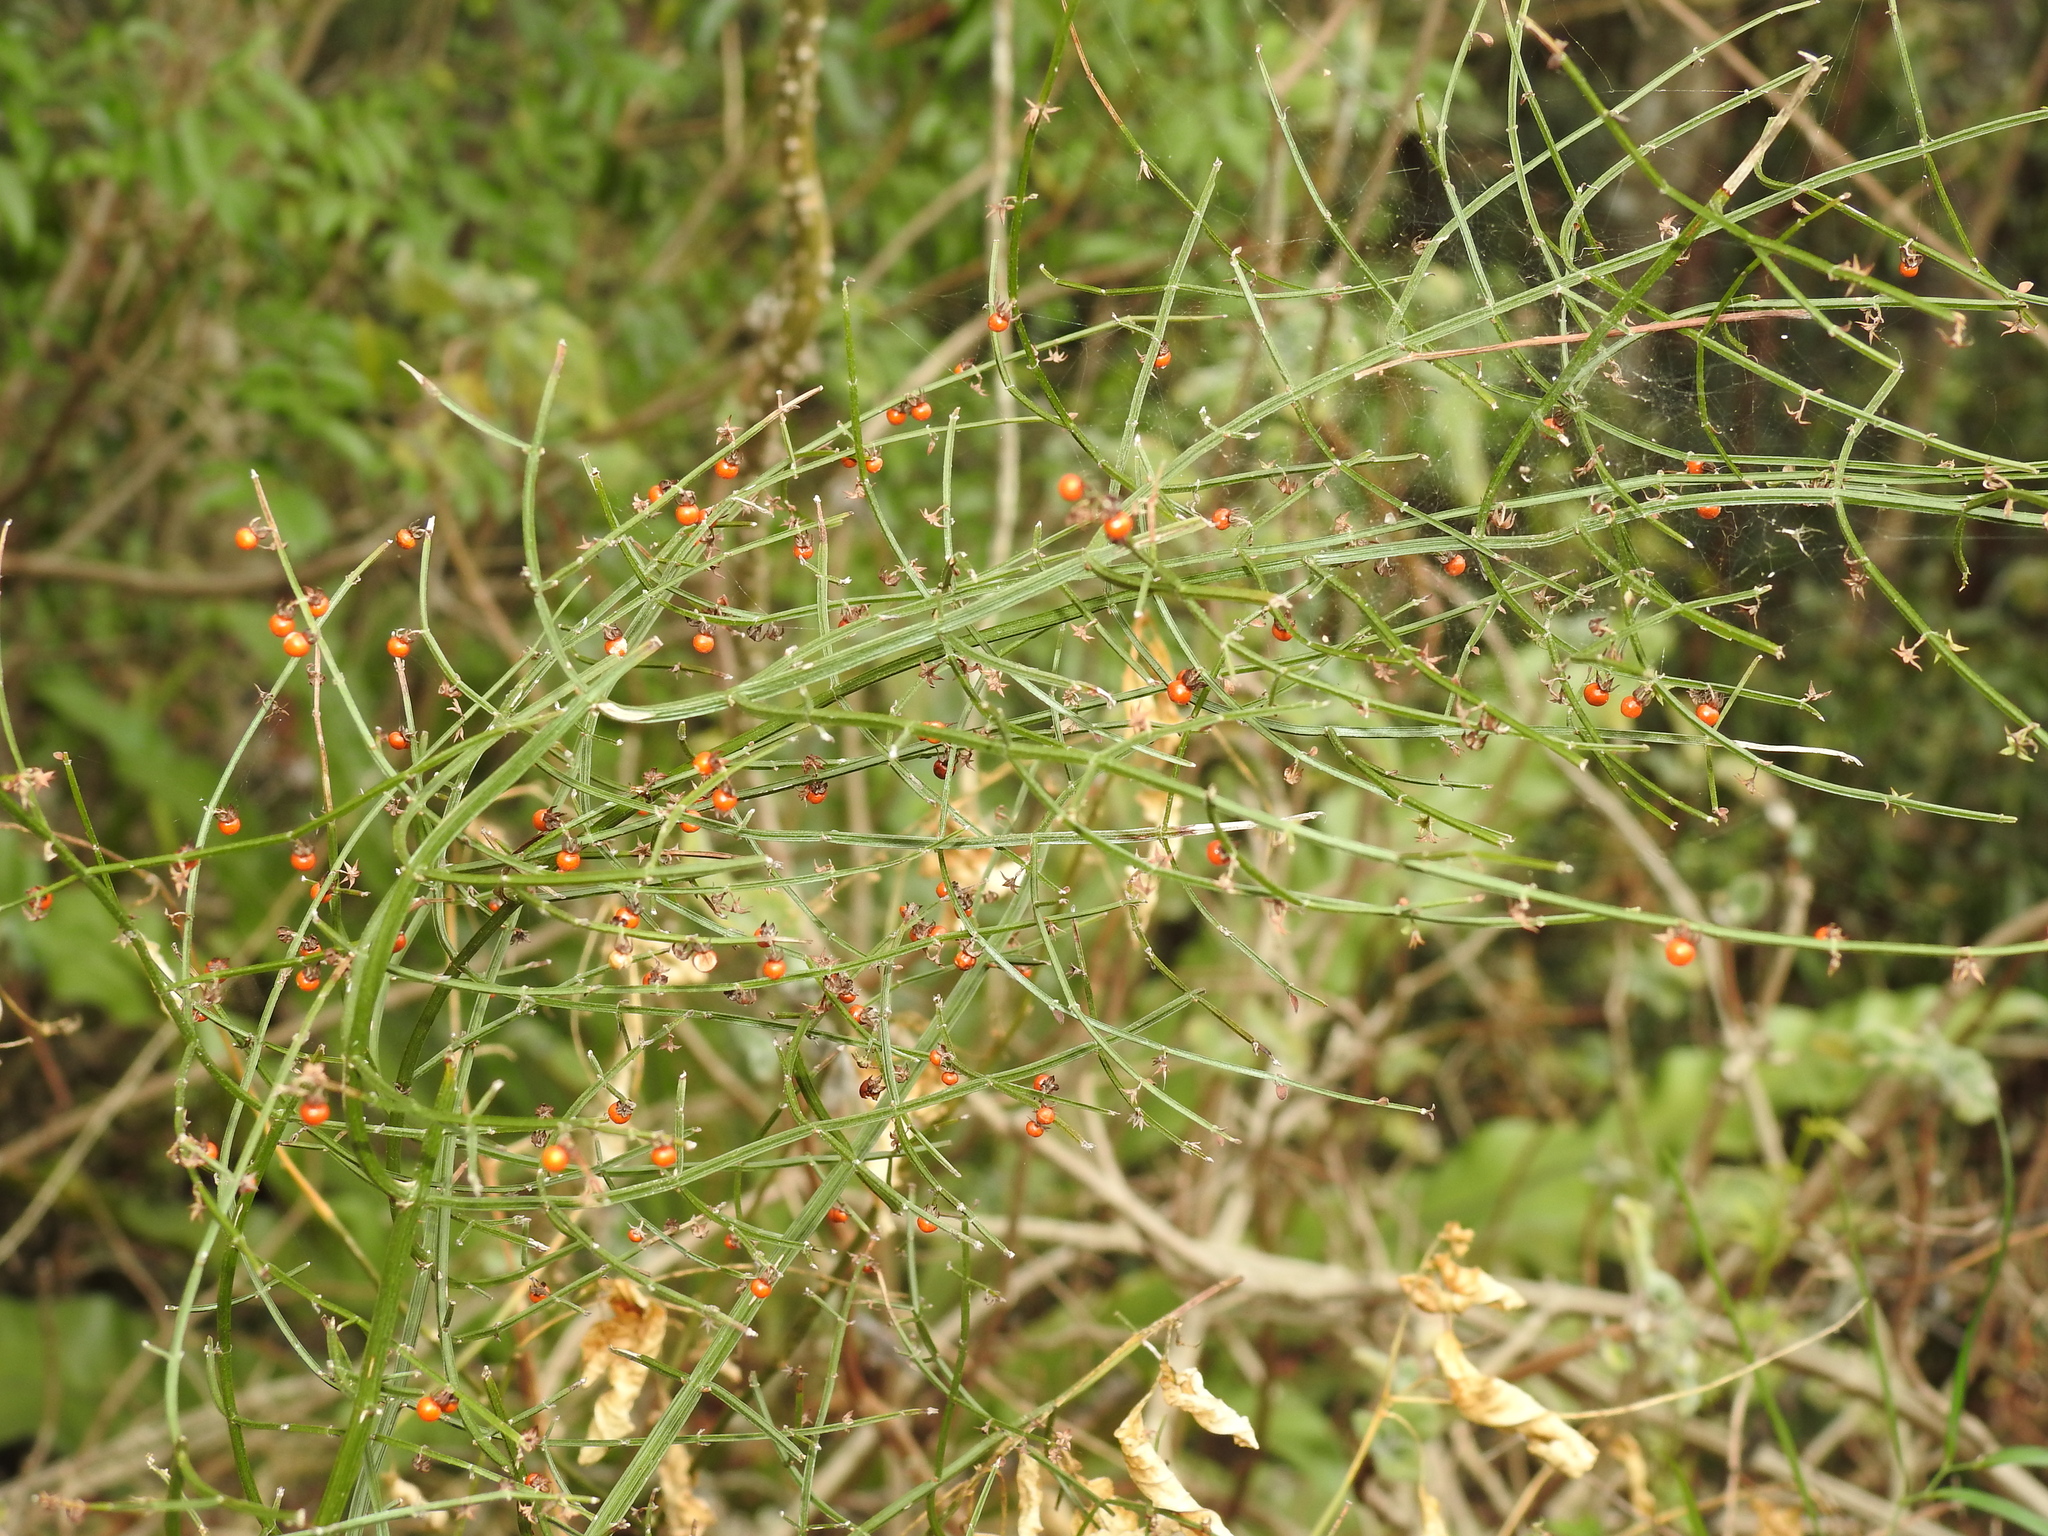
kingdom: Plantae
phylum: Tracheophyta
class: Magnoliopsida
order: Lamiales
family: Lamiaceae
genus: Teucrium
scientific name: Teucrium junceum
